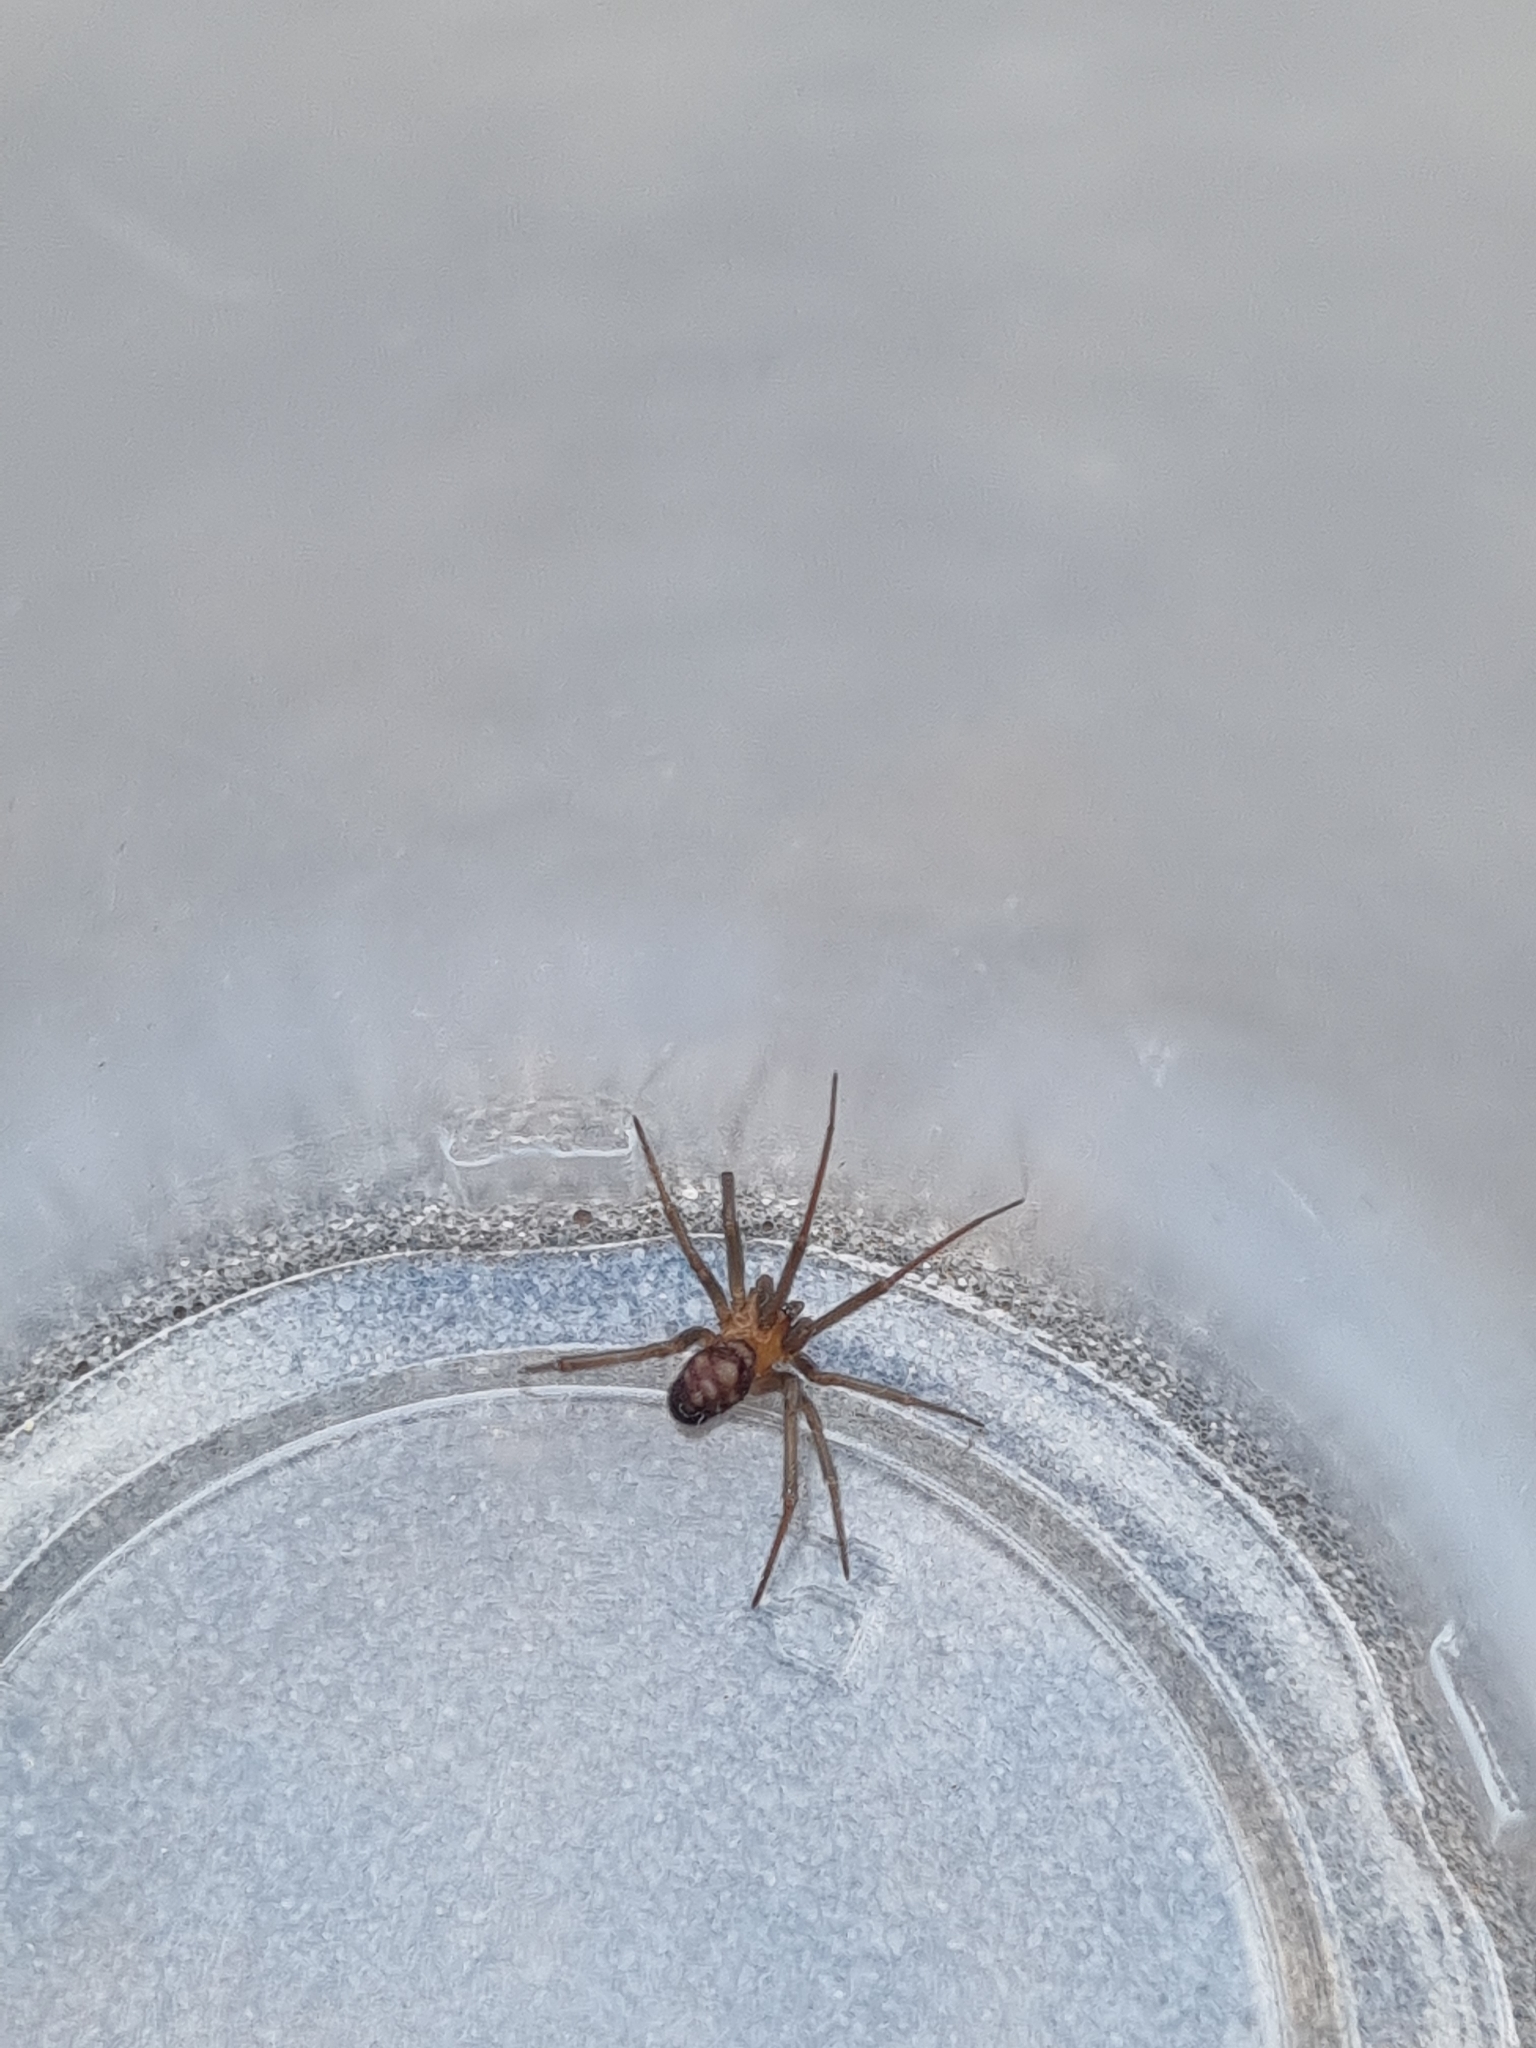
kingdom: Animalia
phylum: Arthropoda
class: Arachnida
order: Araneae
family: Theridiidae
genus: Steatoda
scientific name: Steatoda grossa
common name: False black widow
